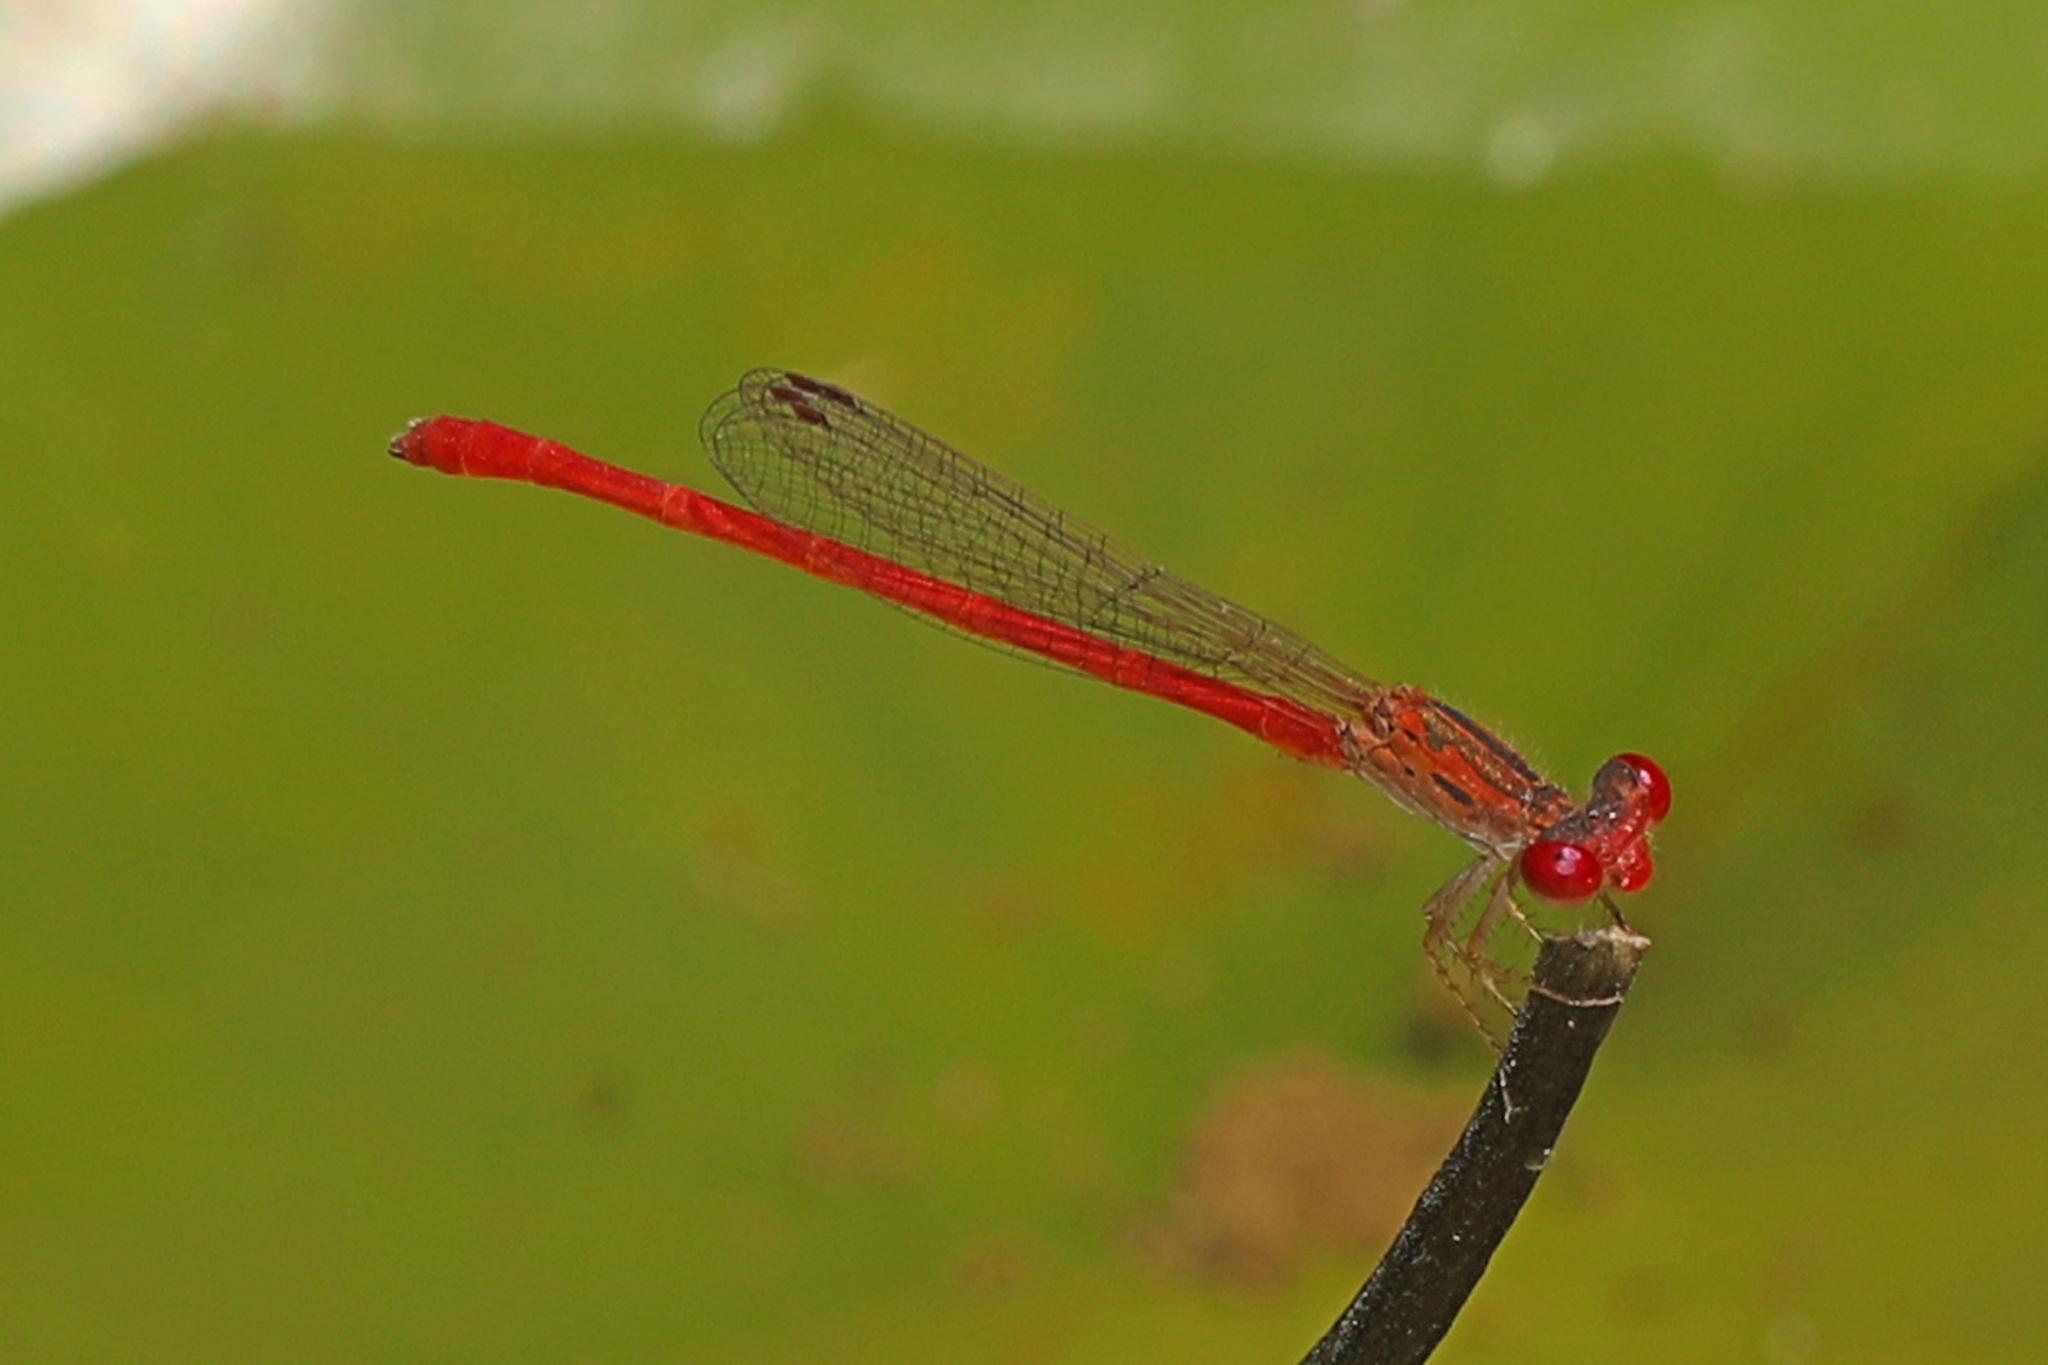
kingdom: Animalia
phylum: Arthropoda
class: Insecta
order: Odonata
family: Coenagrionidae
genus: Telebasis
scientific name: Telebasis salva
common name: Desert firetail
